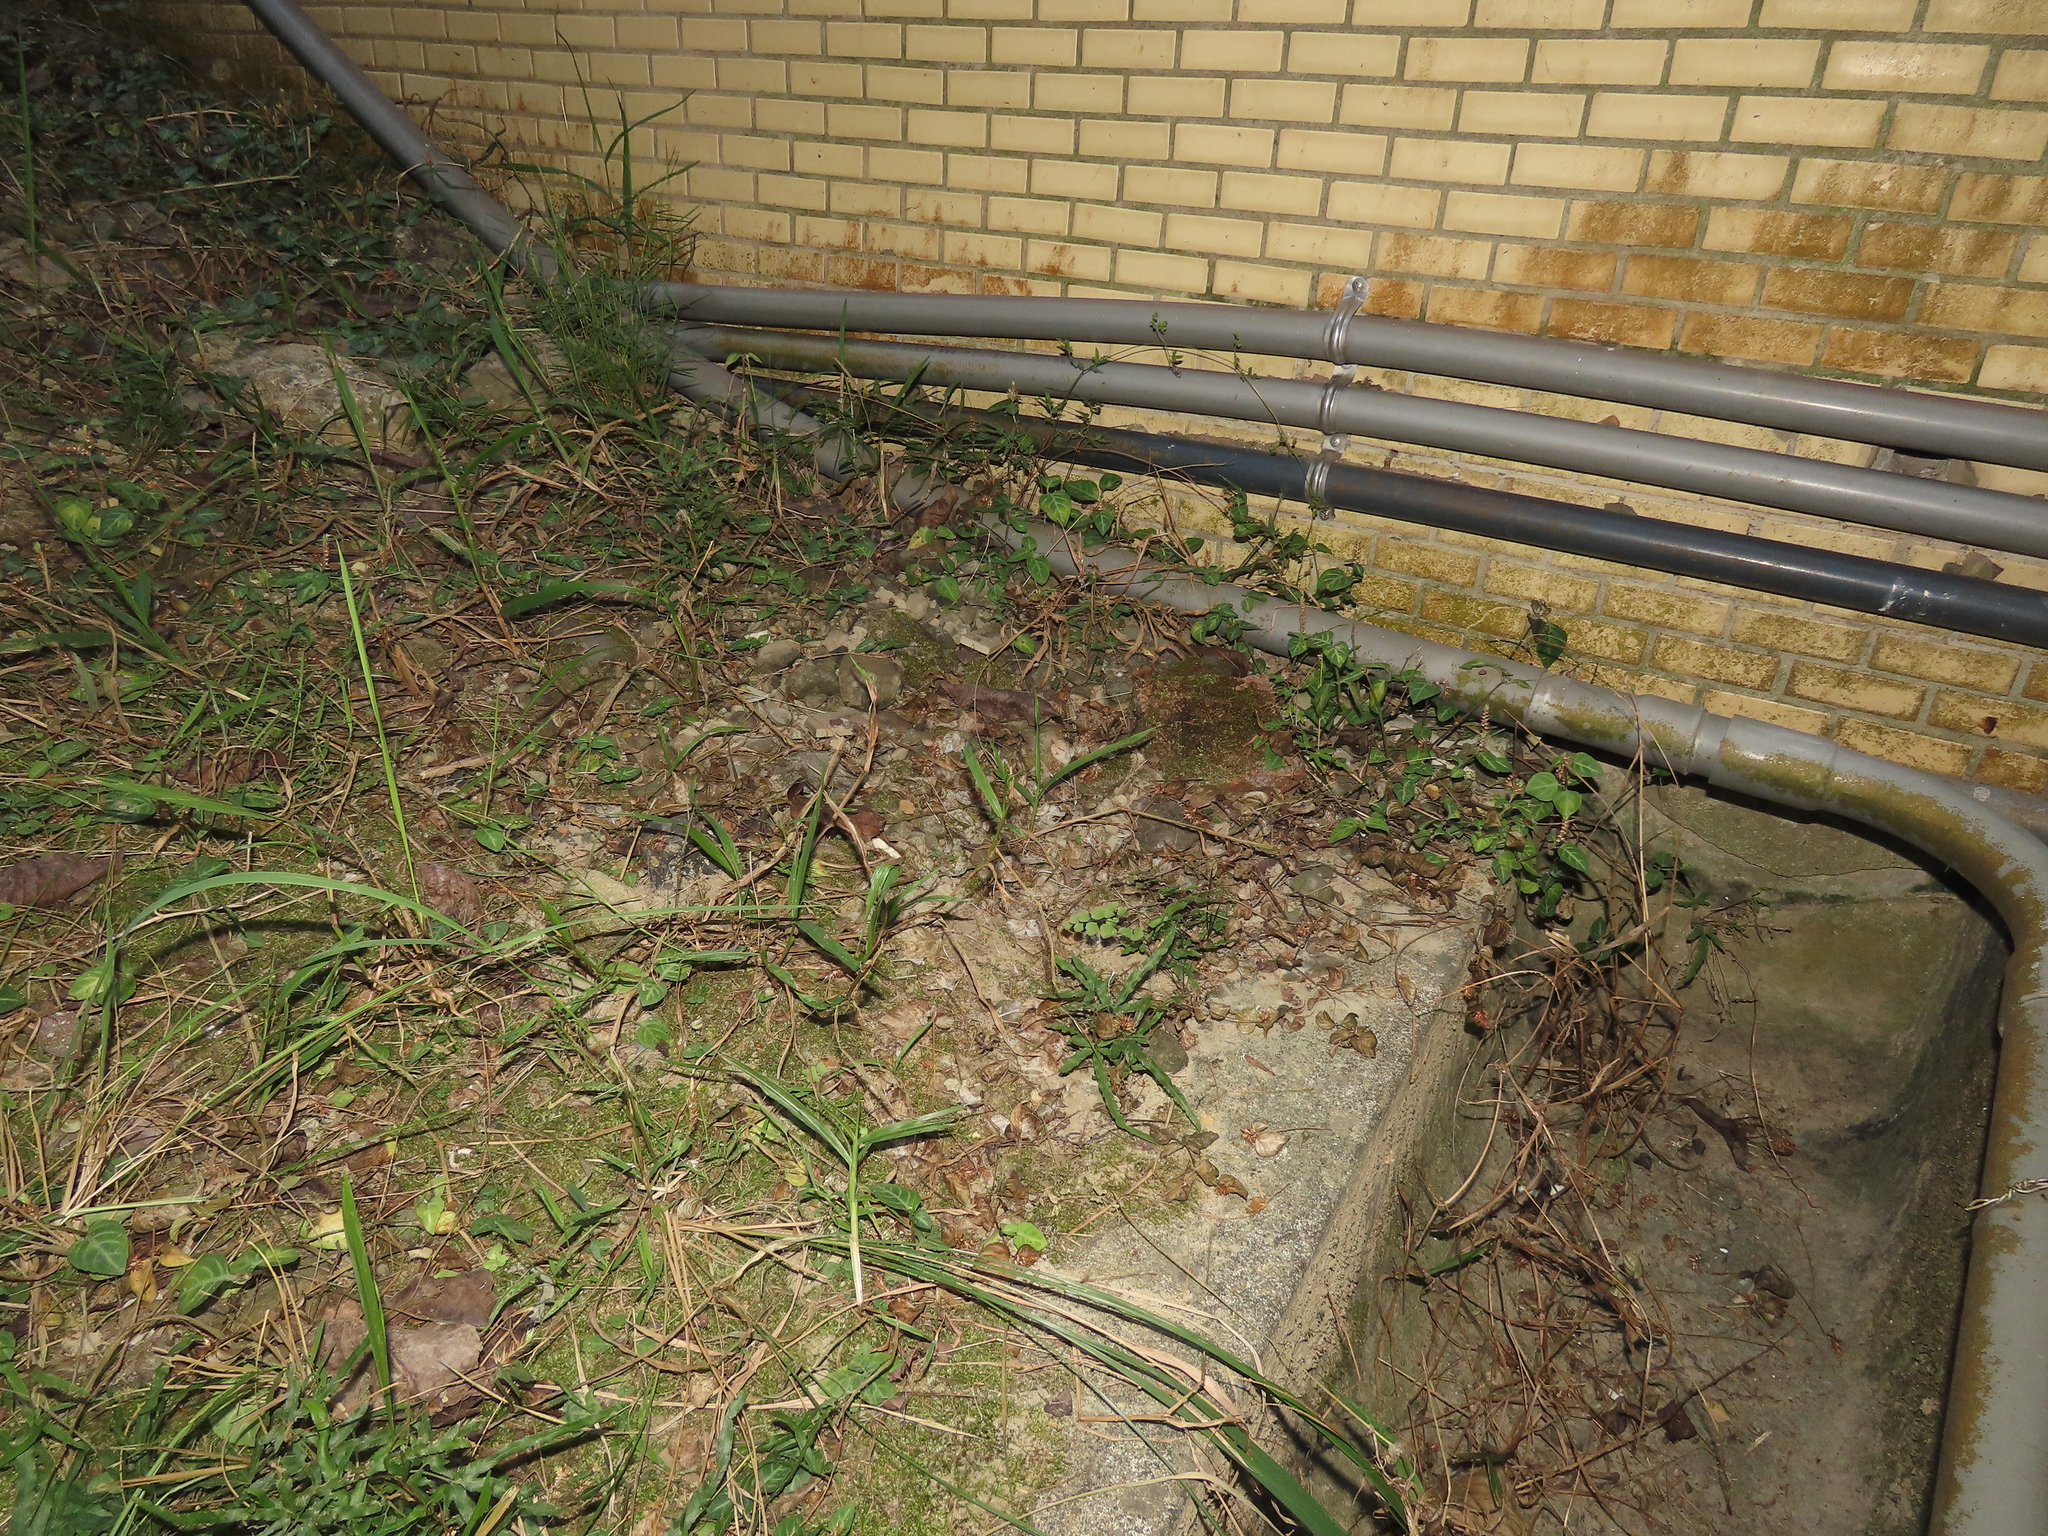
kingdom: Plantae
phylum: Tracheophyta
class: Polypodiopsida
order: Polypodiales
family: Pteridaceae
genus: Adiantum
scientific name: Adiantum tenerum
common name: Fan maidenhair
